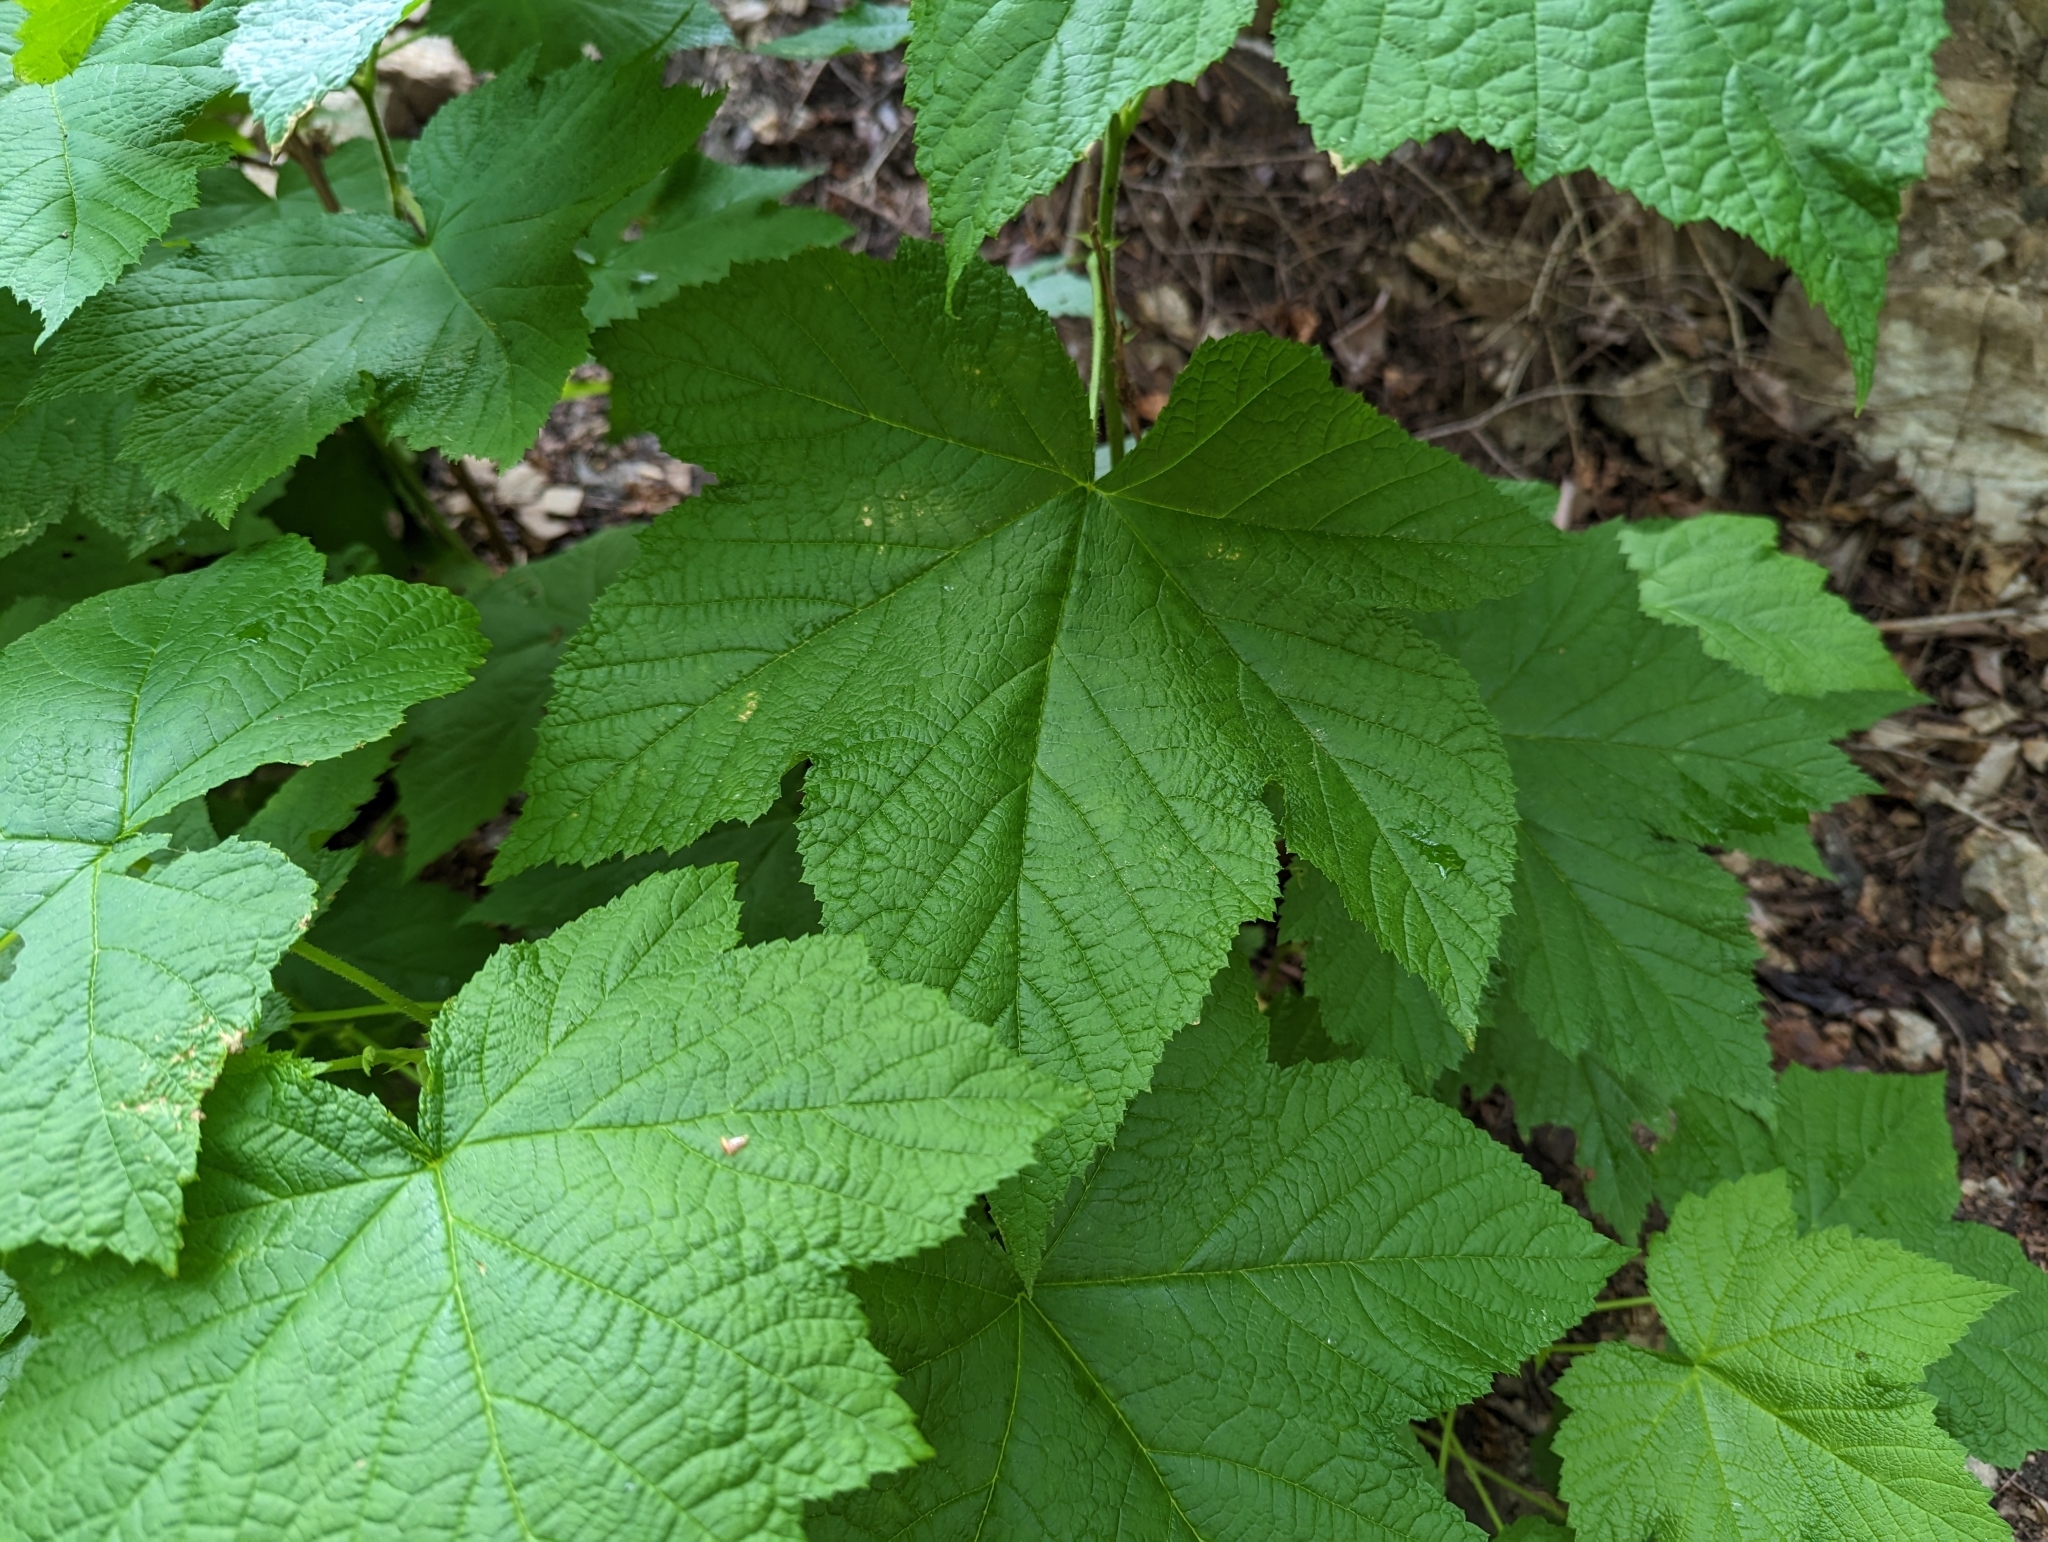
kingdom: Plantae
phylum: Tracheophyta
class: Magnoliopsida
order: Rosales
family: Rosaceae
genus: Rubus
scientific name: Rubus parviflorus
